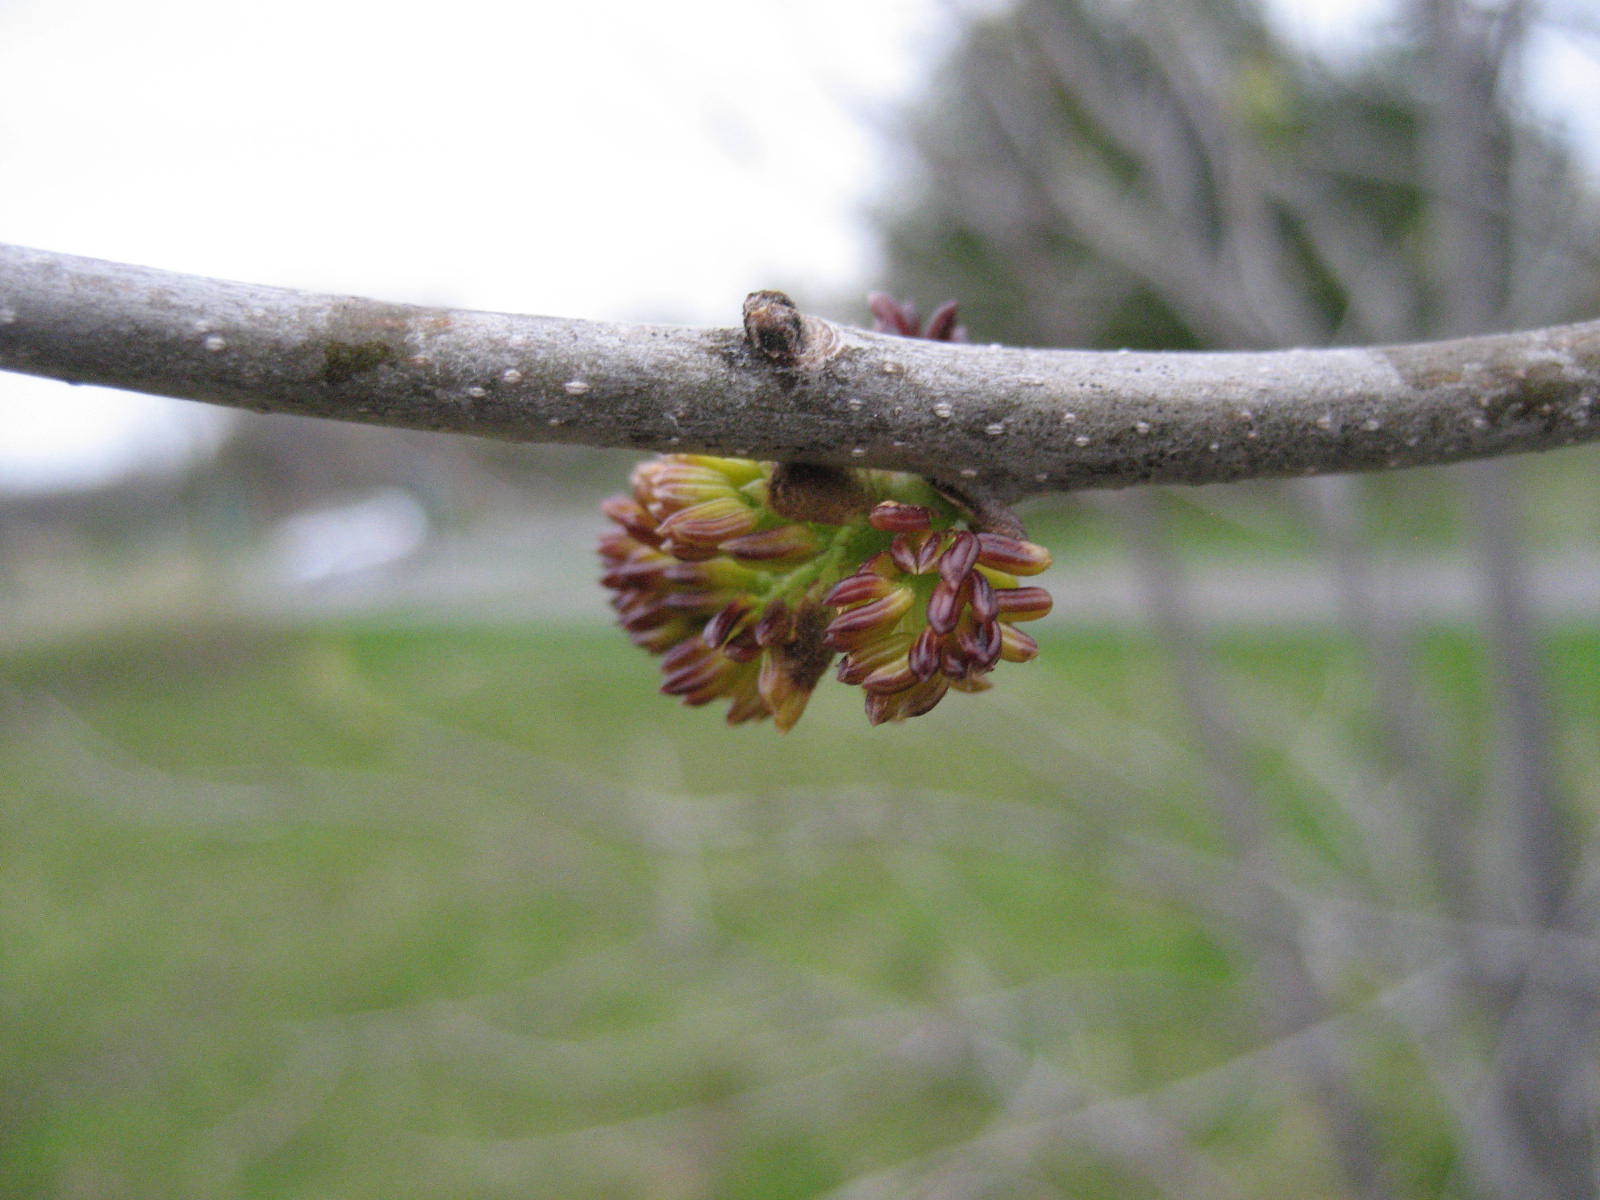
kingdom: Plantae
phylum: Tracheophyta
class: Magnoliopsida
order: Lamiales
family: Oleaceae
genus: Fraxinus
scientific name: Fraxinus pennsylvanica
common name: Green ash
